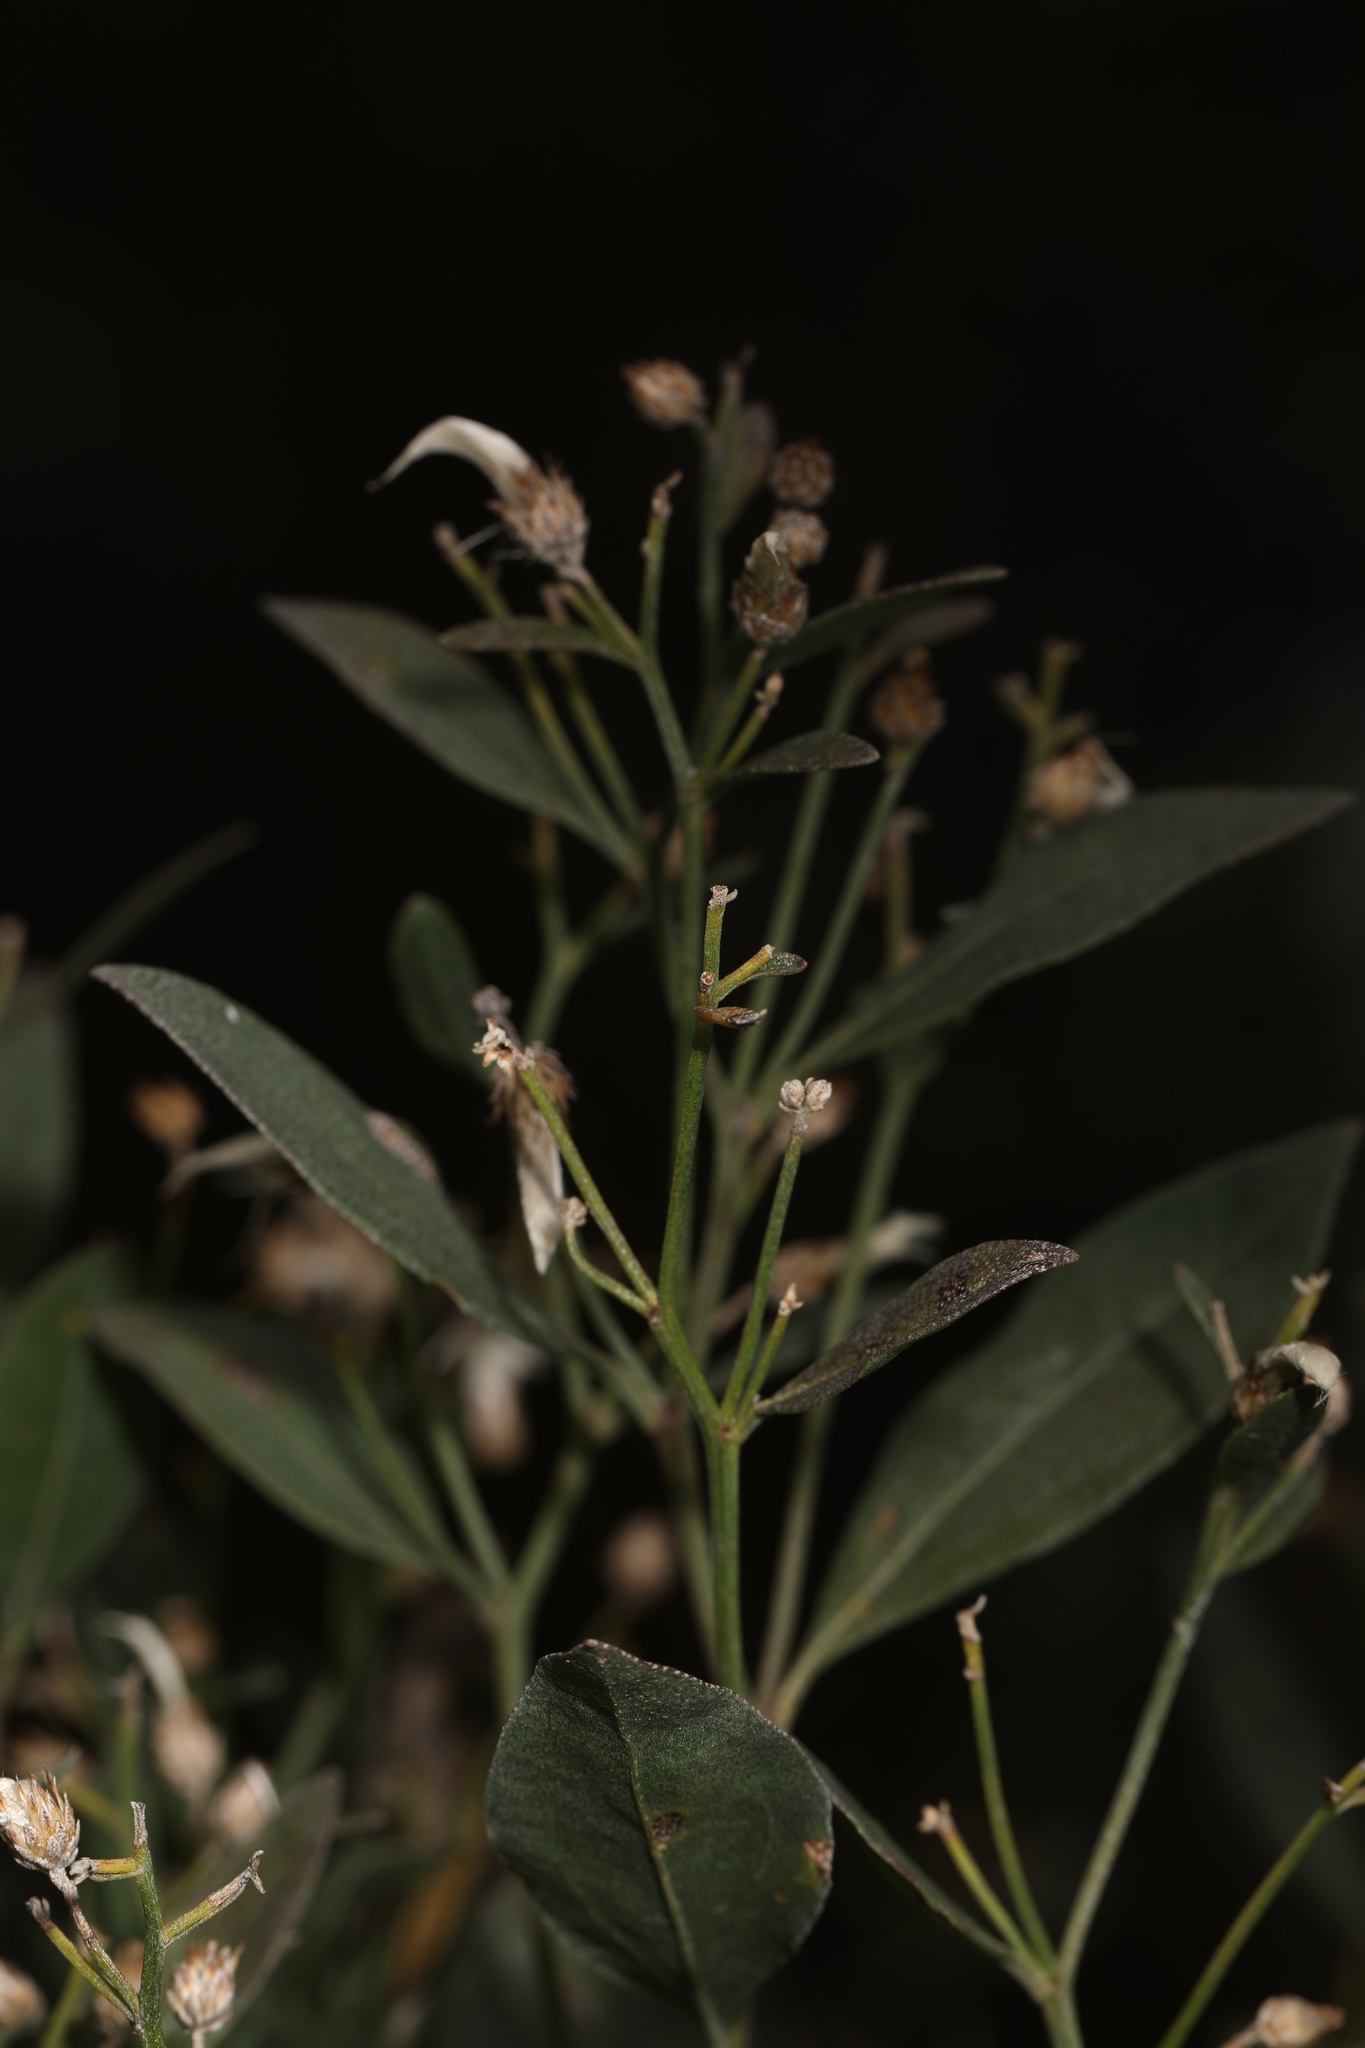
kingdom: Plantae
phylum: Tracheophyta
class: Magnoliopsida
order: Asterales
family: Asteraceae
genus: Baccharis
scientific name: Baccharis halimifolia
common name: Eastern baccharis
